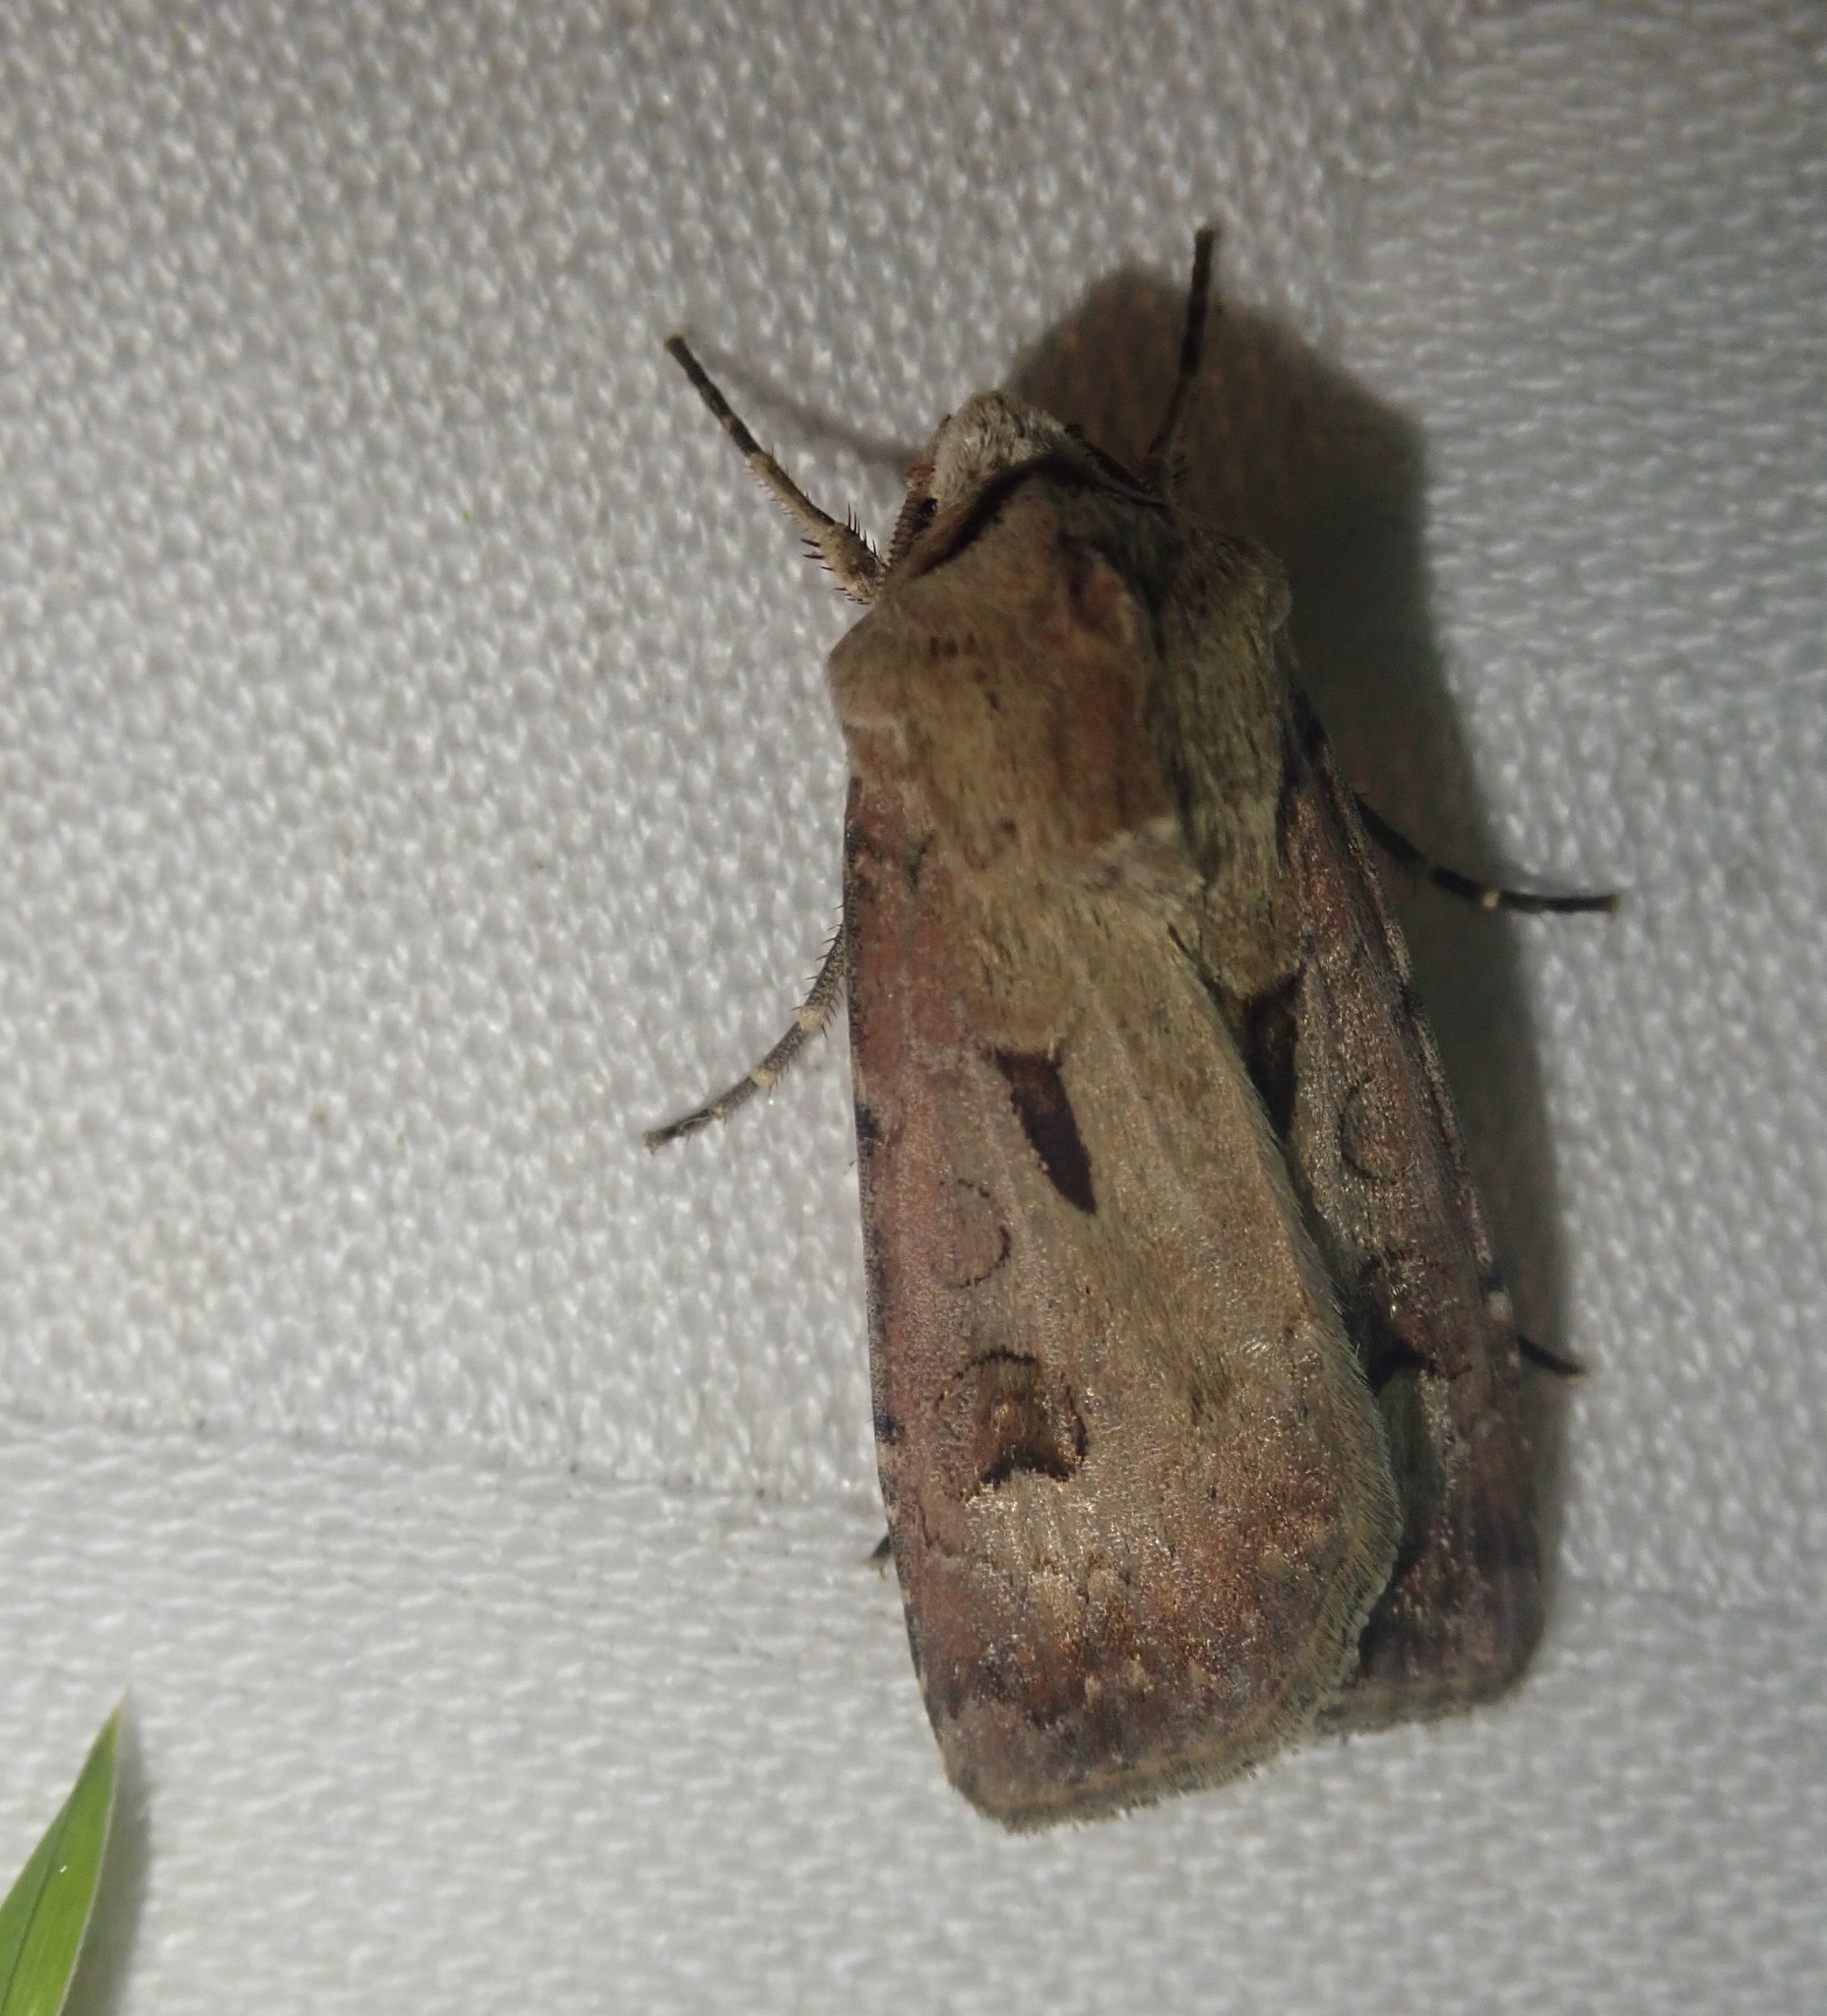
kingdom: Animalia
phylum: Arthropoda
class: Insecta
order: Lepidoptera
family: Noctuidae
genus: Agrotis
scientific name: Agrotis exclamationis
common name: Heart and dart
